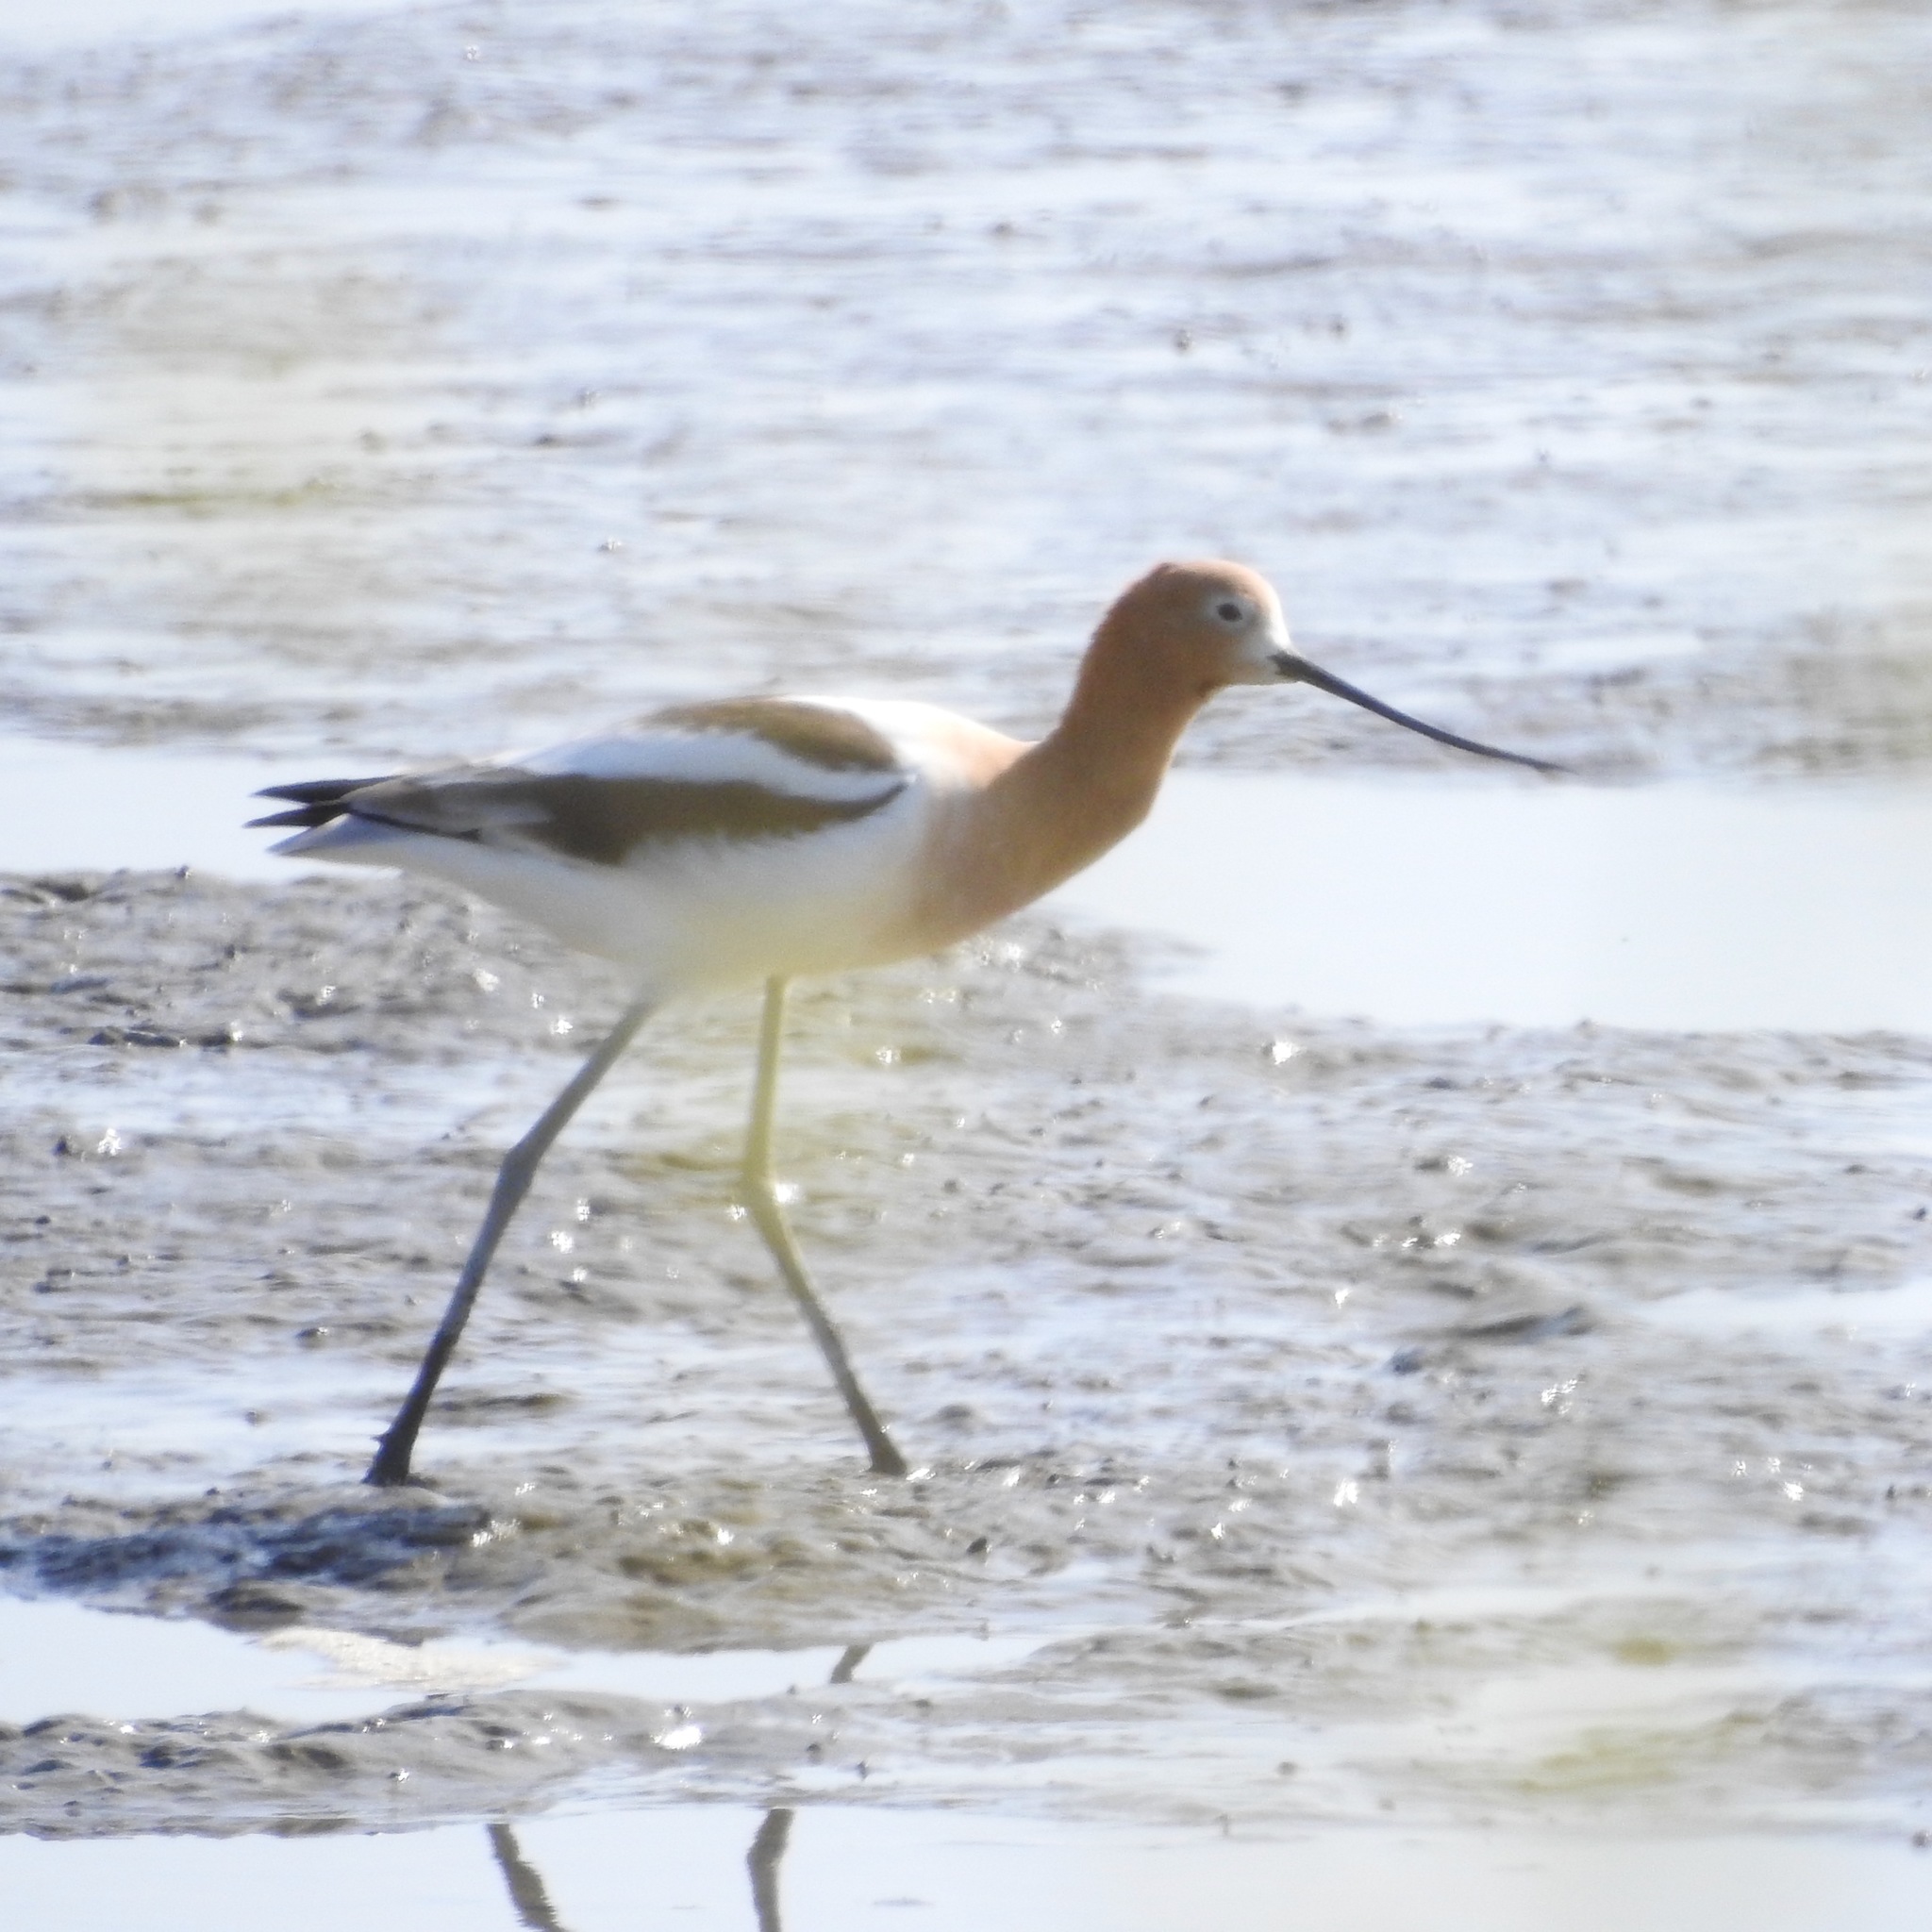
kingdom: Animalia
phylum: Chordata
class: Aves
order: Charadriiformes
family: Recurvirostridae
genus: Recurvirostra
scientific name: Recurvirostra americana
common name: American avocet
